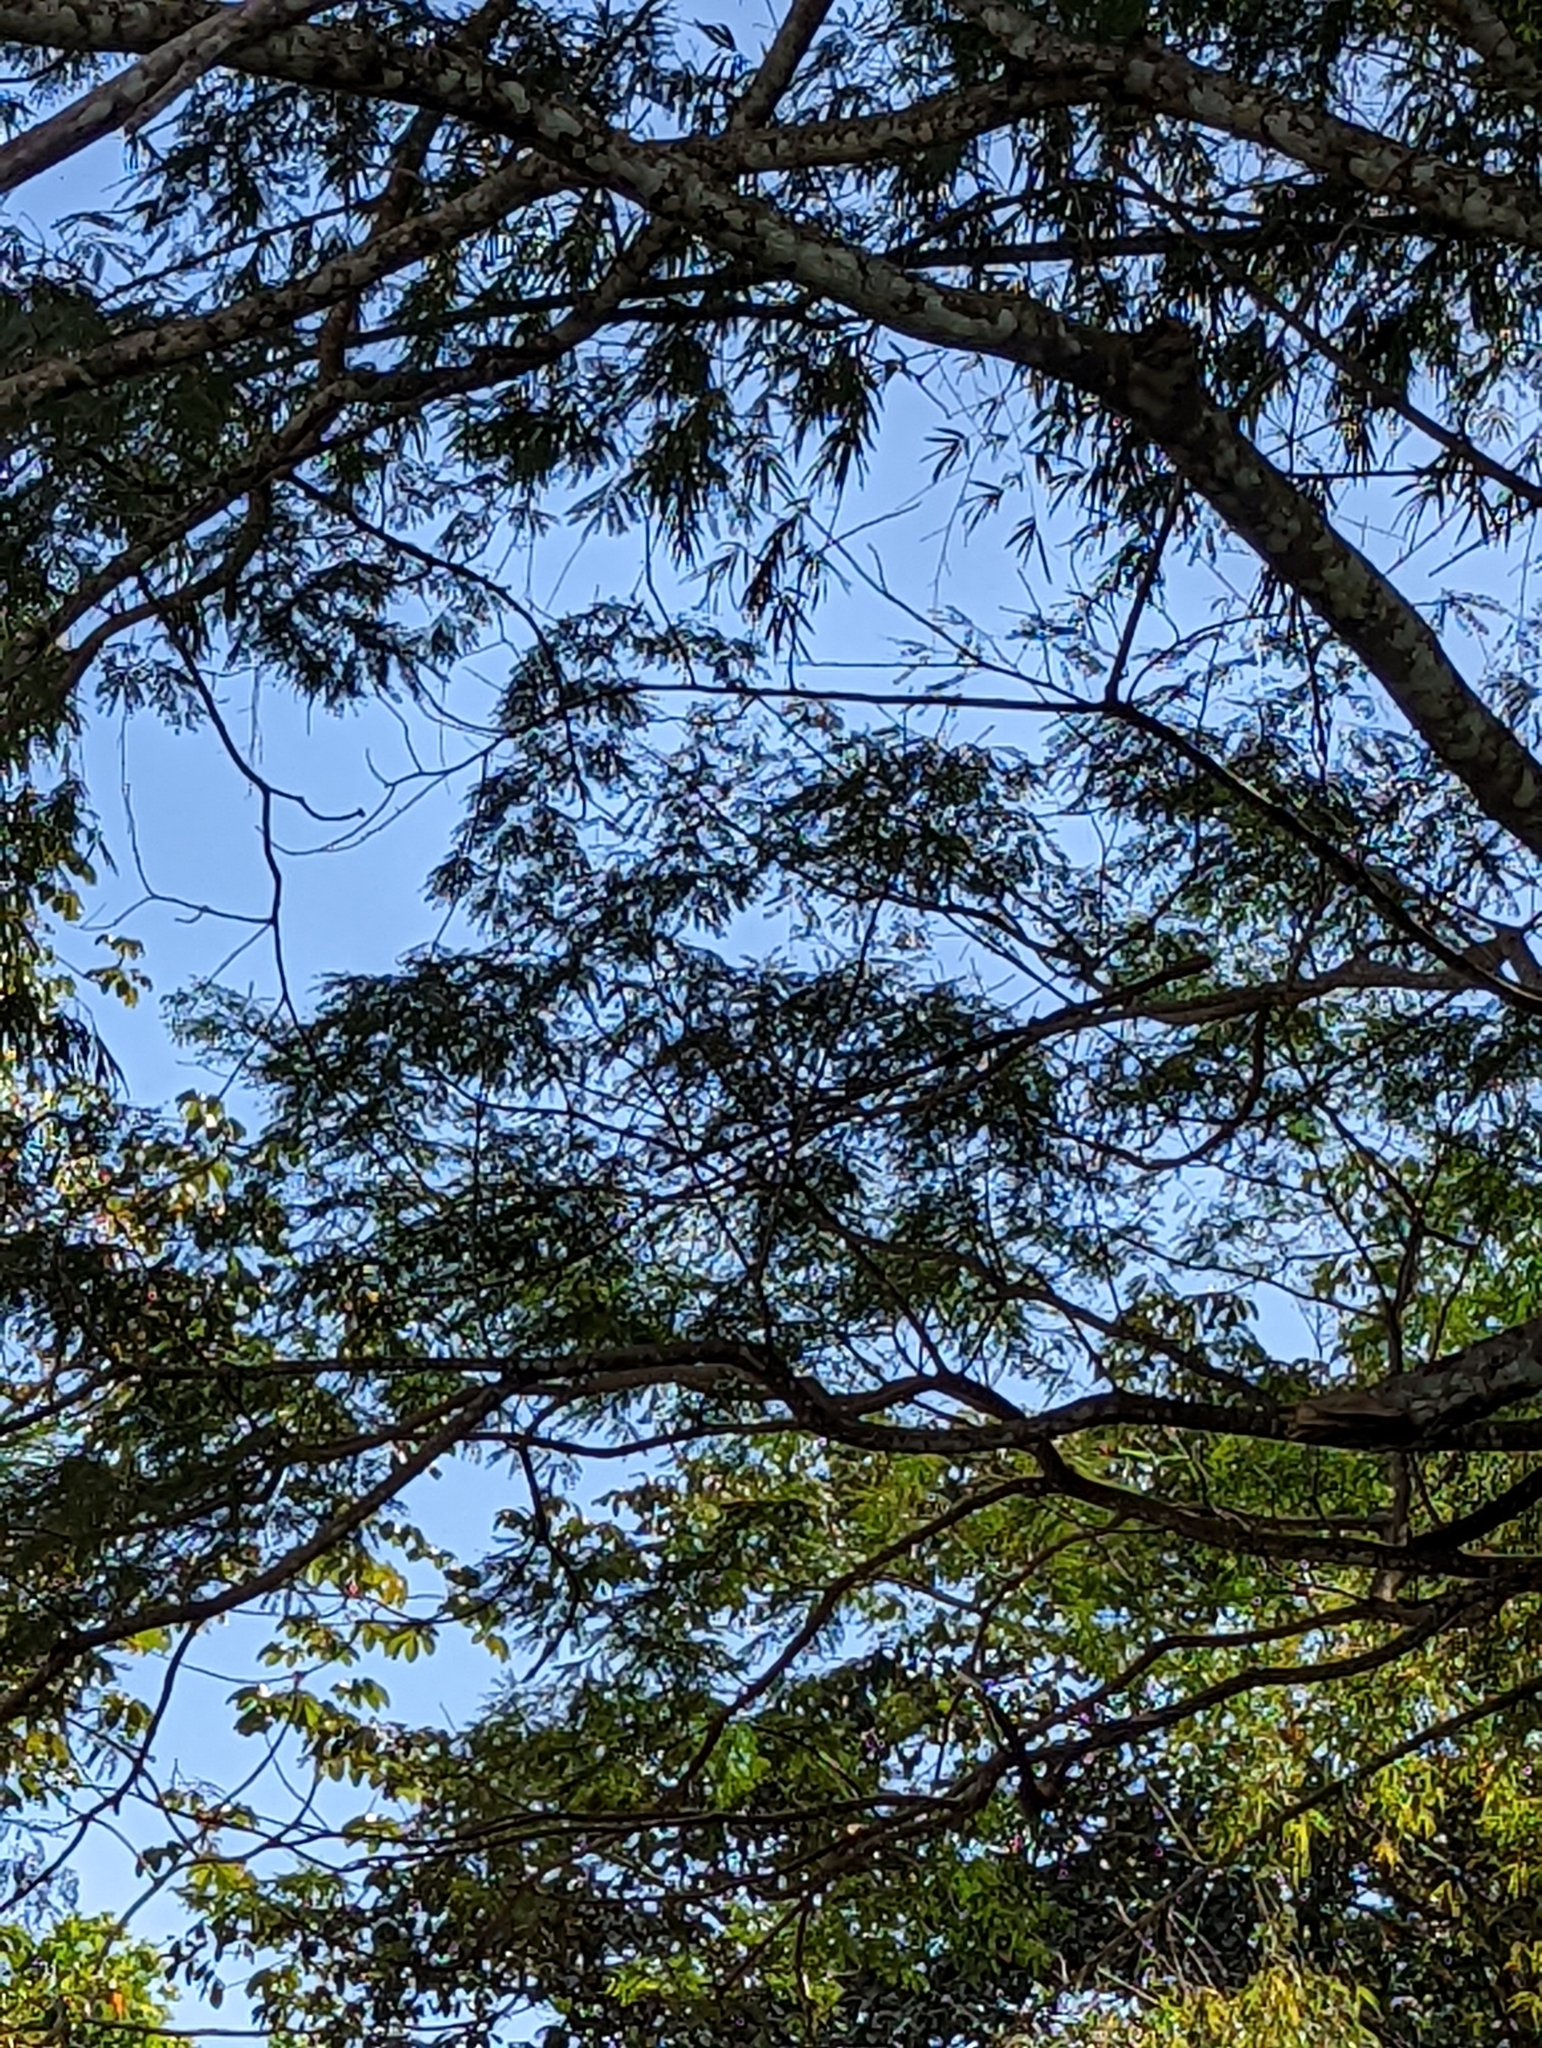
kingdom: Animalia
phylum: Chordata
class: Aves
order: Falconiformes
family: Falconidae
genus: Caracara
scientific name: Caracara plancus
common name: Southern caracara
